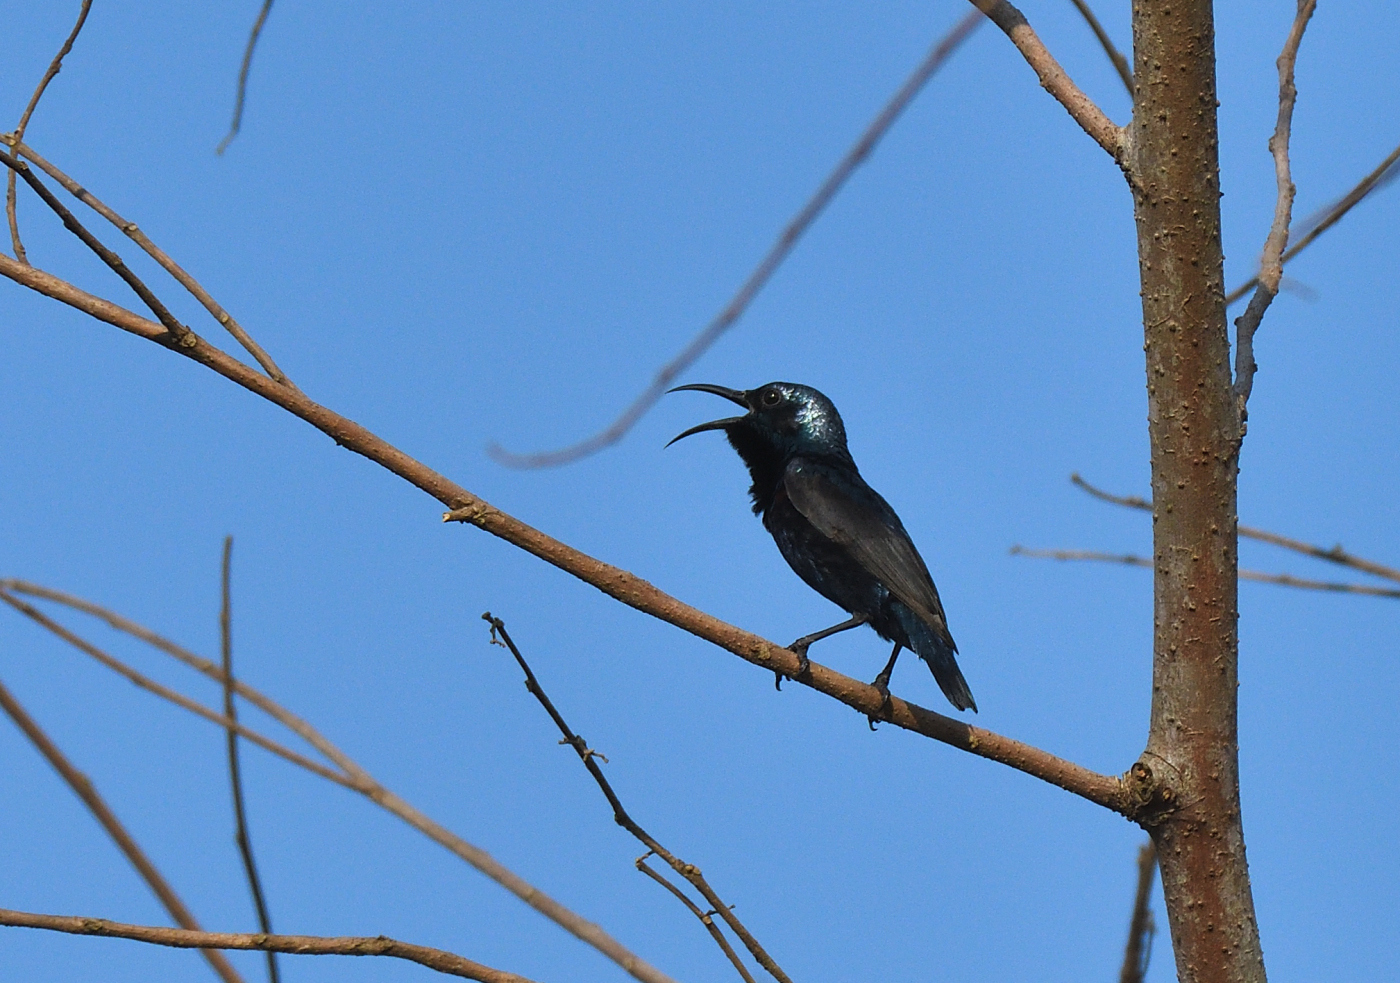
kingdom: Animalia
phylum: Chordata
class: Aves
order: Passeriformes
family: Nectariniidae
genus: Cinnyris
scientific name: Cinnyris asiaticus
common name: Purple sunbird
